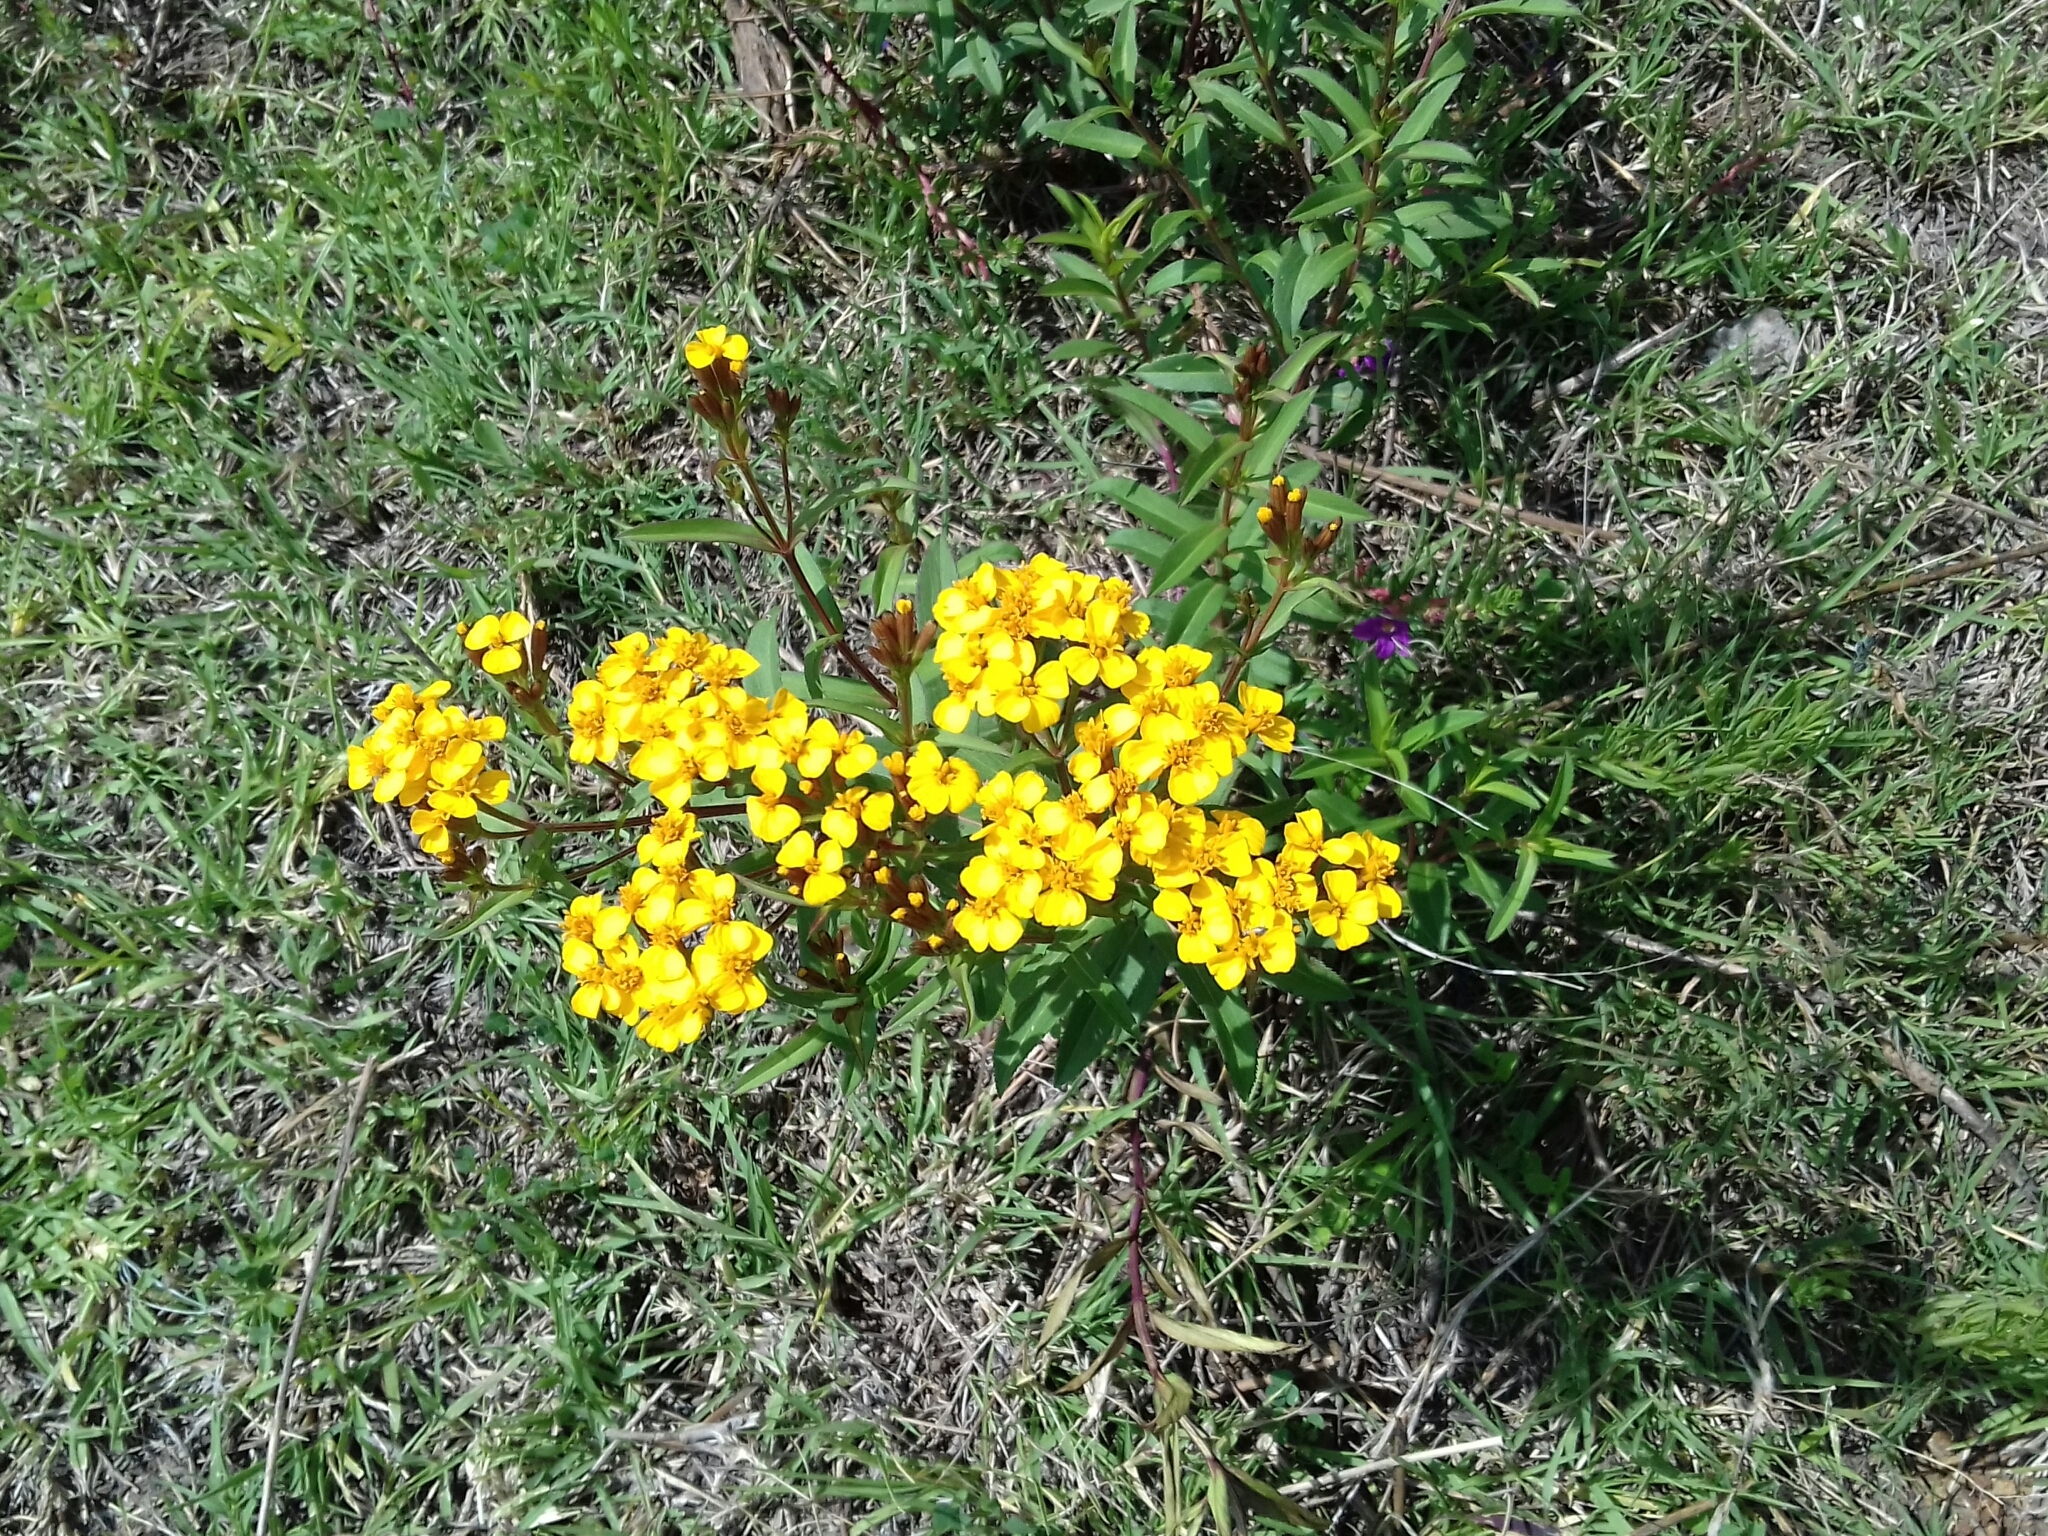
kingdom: Plantae
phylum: Tracheophyta
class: Magnoliopsida
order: Asterales
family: Asteraceae
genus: Tagetes
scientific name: Tagetes lucida
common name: Sweetscented marigold
